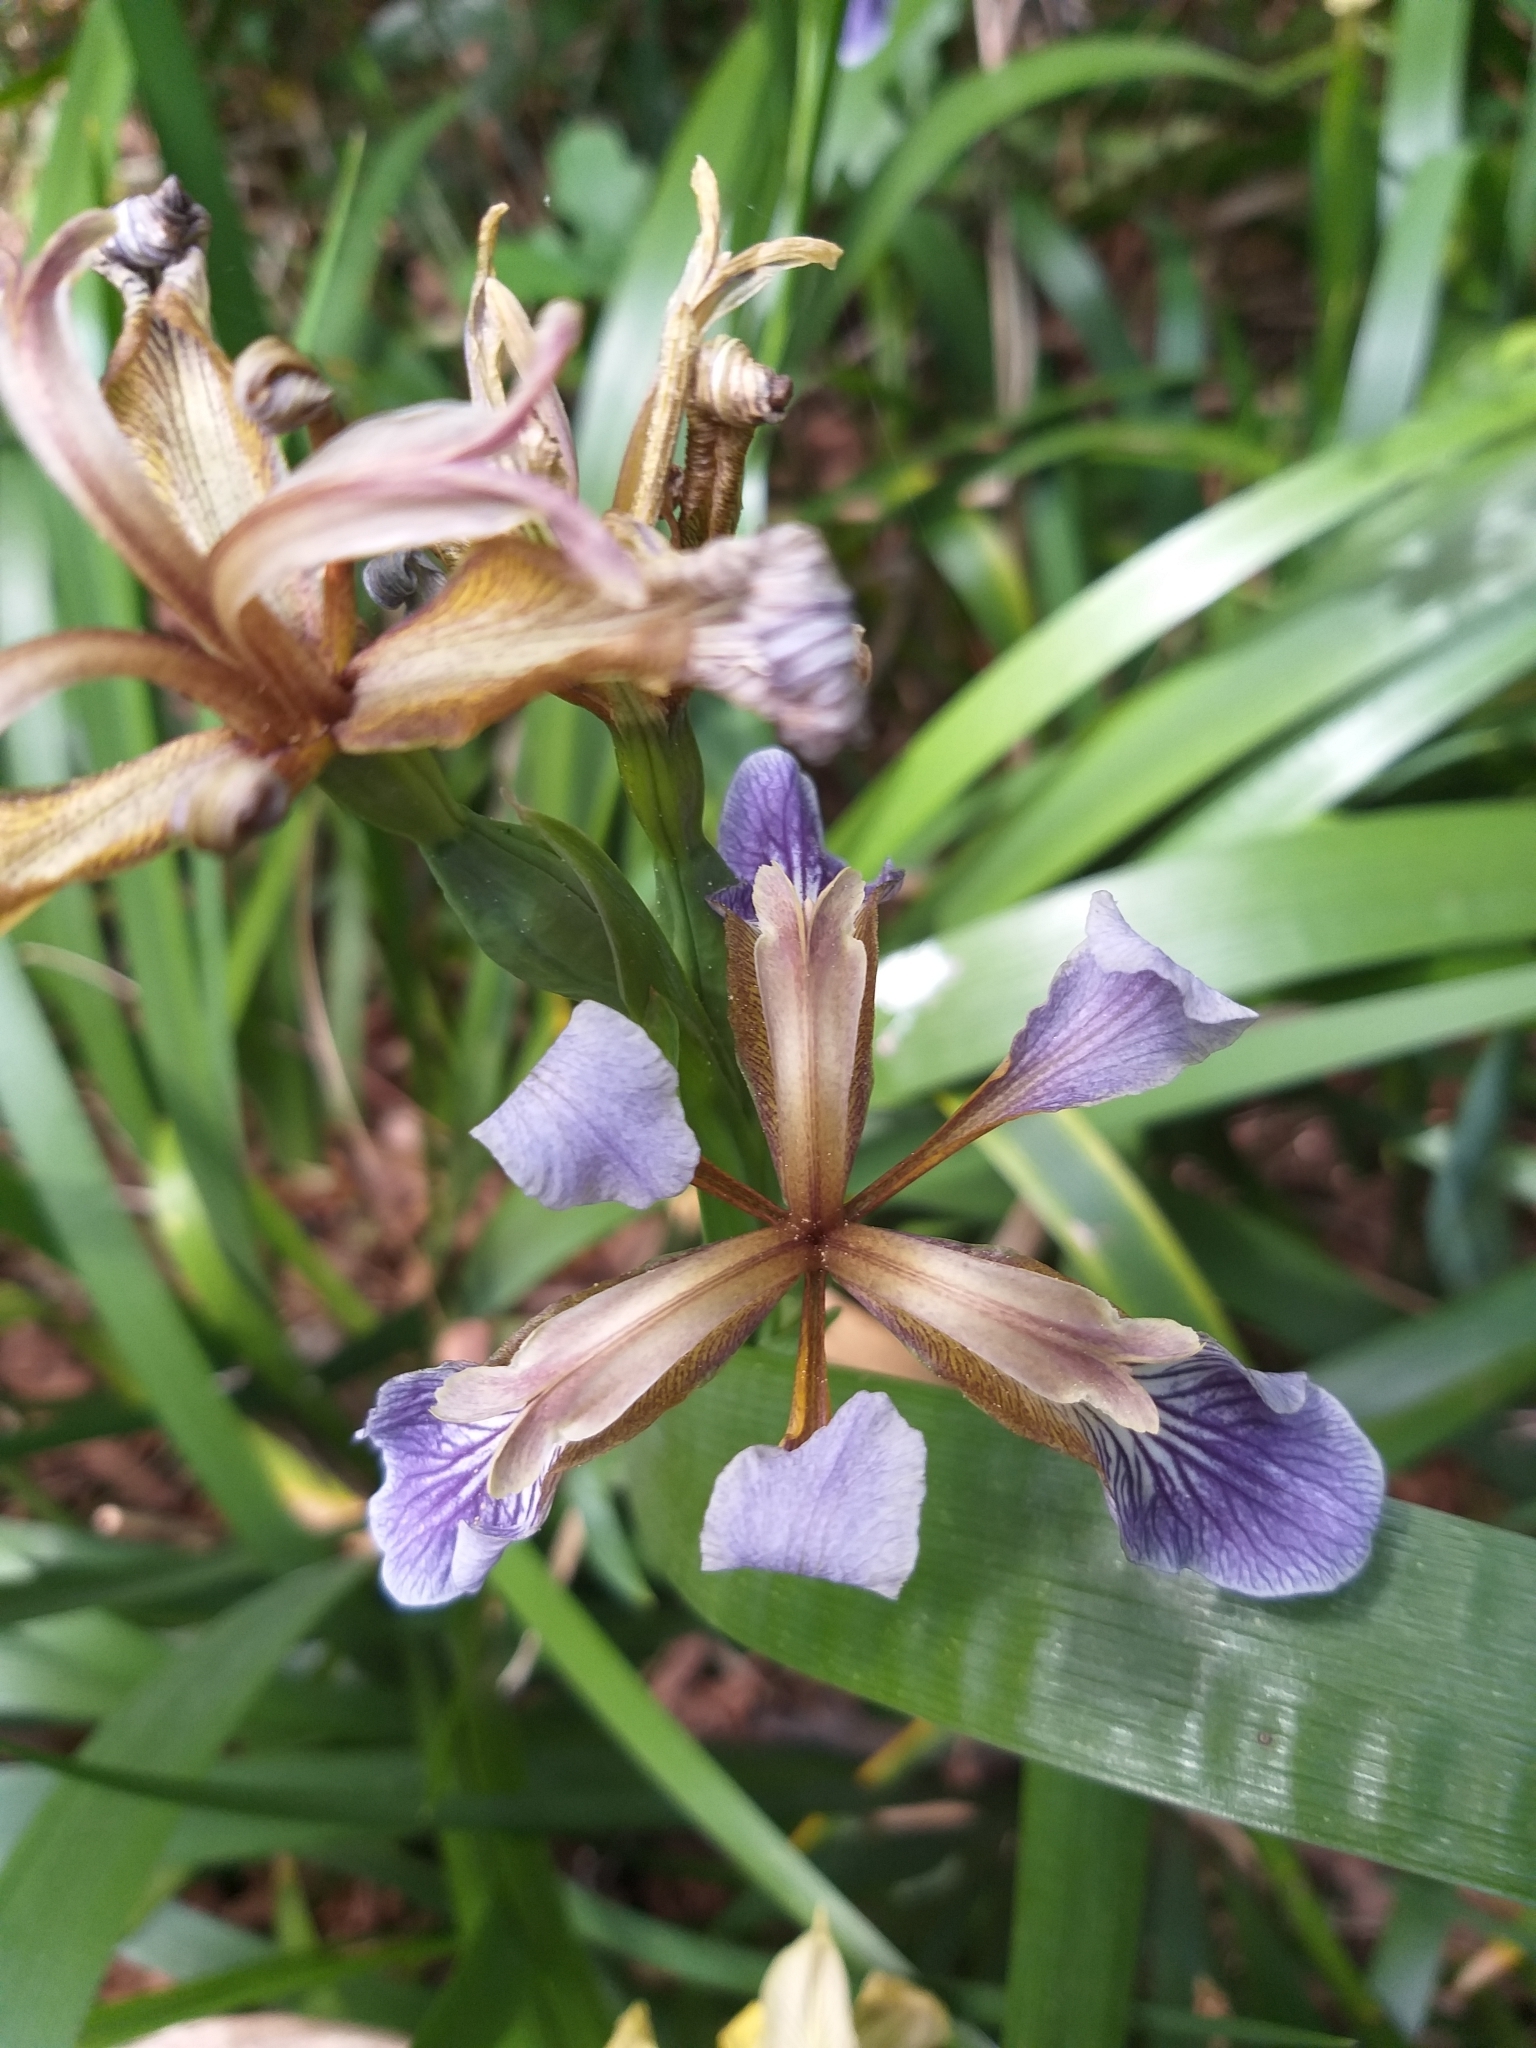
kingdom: Plantae
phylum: Tracheophyta
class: Liliopsida
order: Asparagales
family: Iridaceae
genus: Iris
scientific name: Iris foetidissima
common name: Stinking iris
